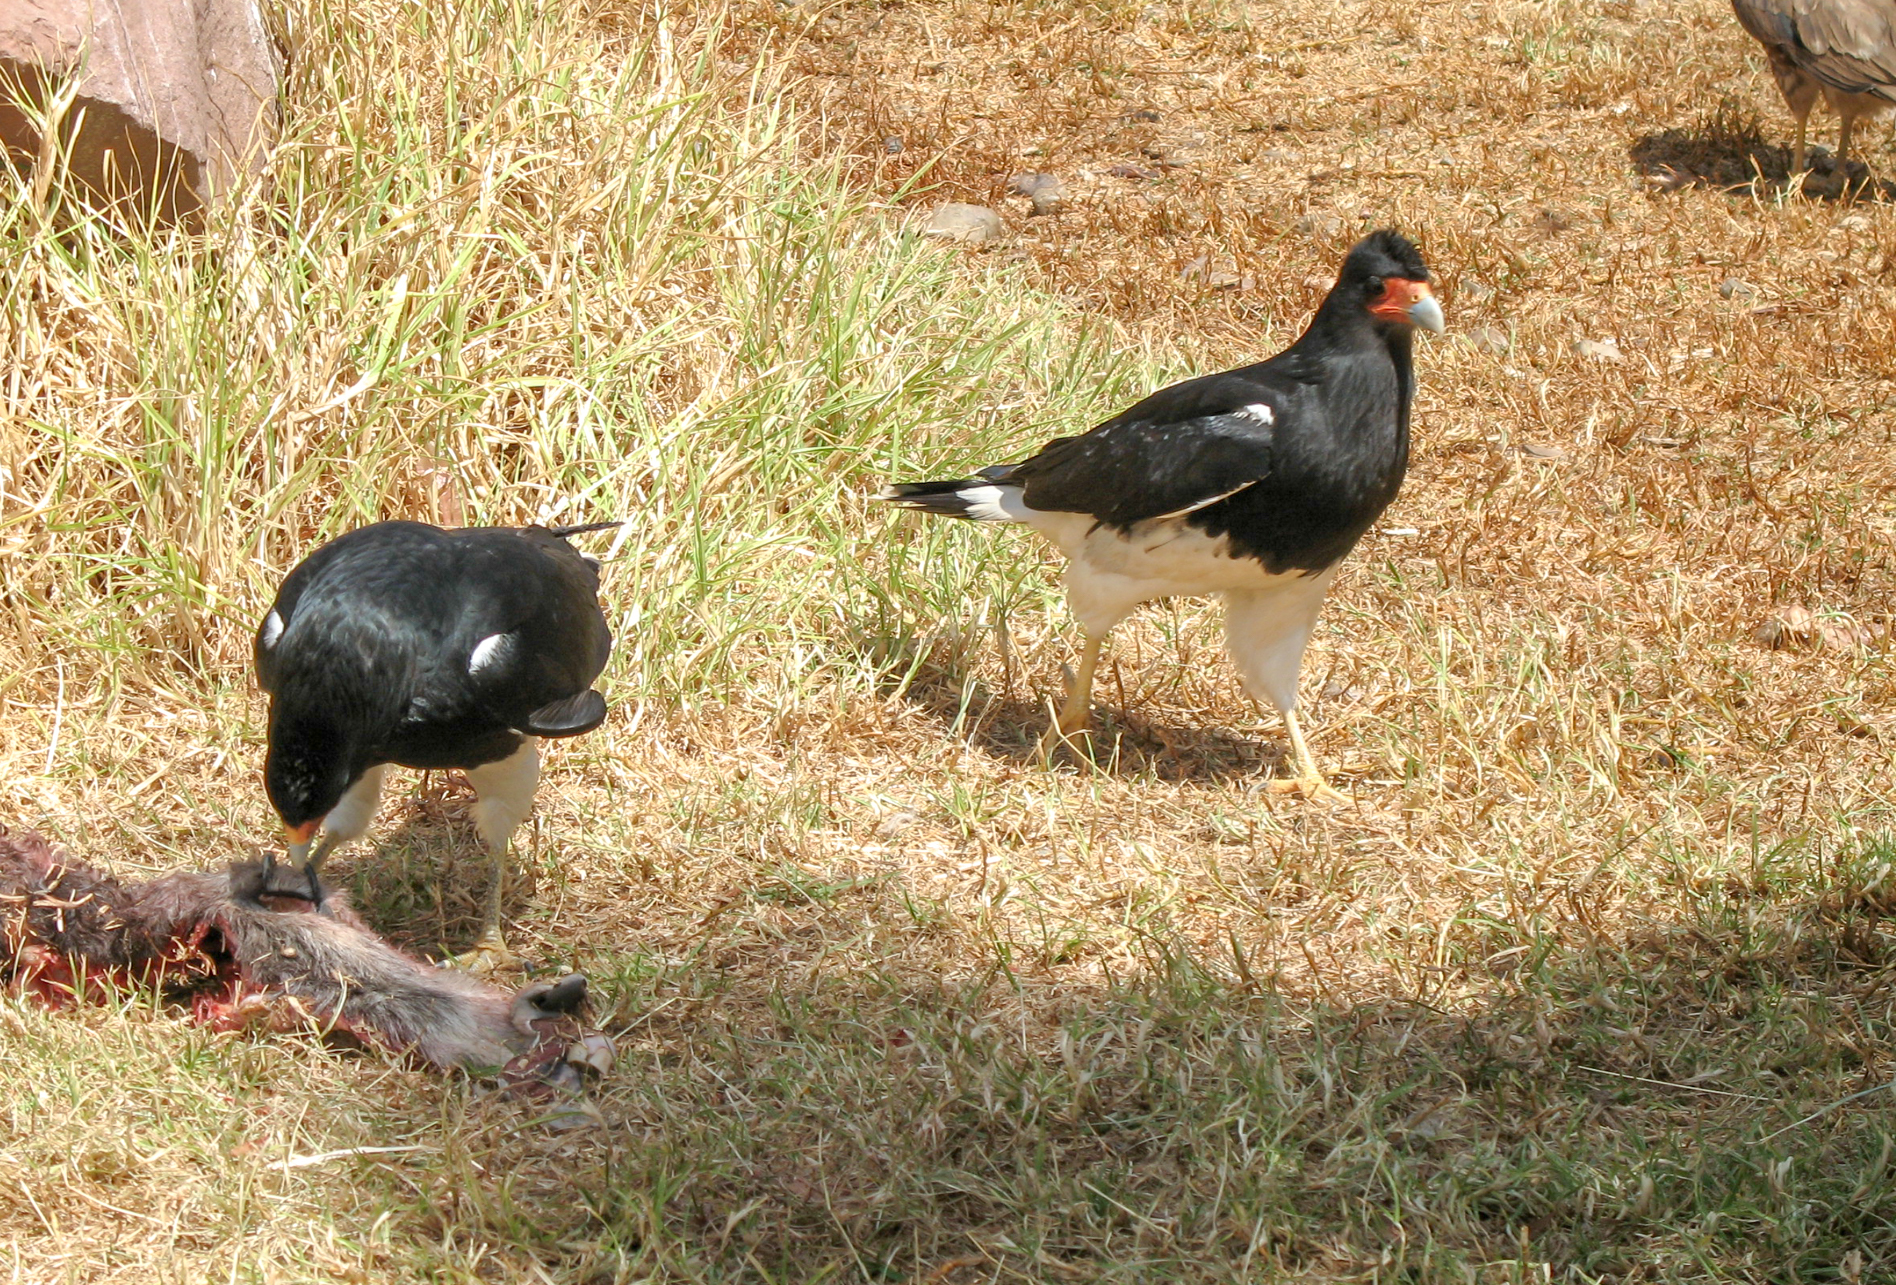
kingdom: Animalia
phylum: Chordata
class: Aves
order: Falconiformes
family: Falconidae
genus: Daptrius
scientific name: Daptrius
